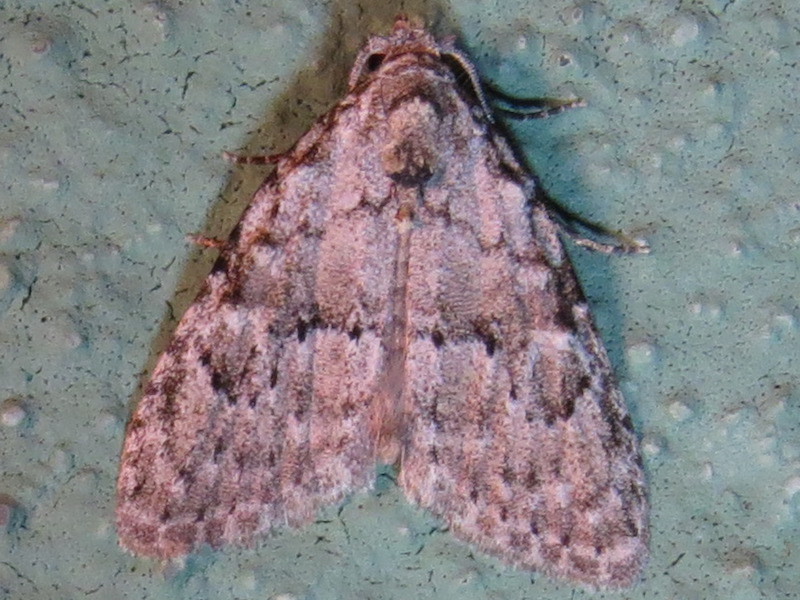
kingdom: Animalia
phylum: Arthropoda
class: Insecta
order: Lepidoptera
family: Nolidae
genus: Meganola
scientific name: Meganola minuscula
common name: Confused meganola moth
